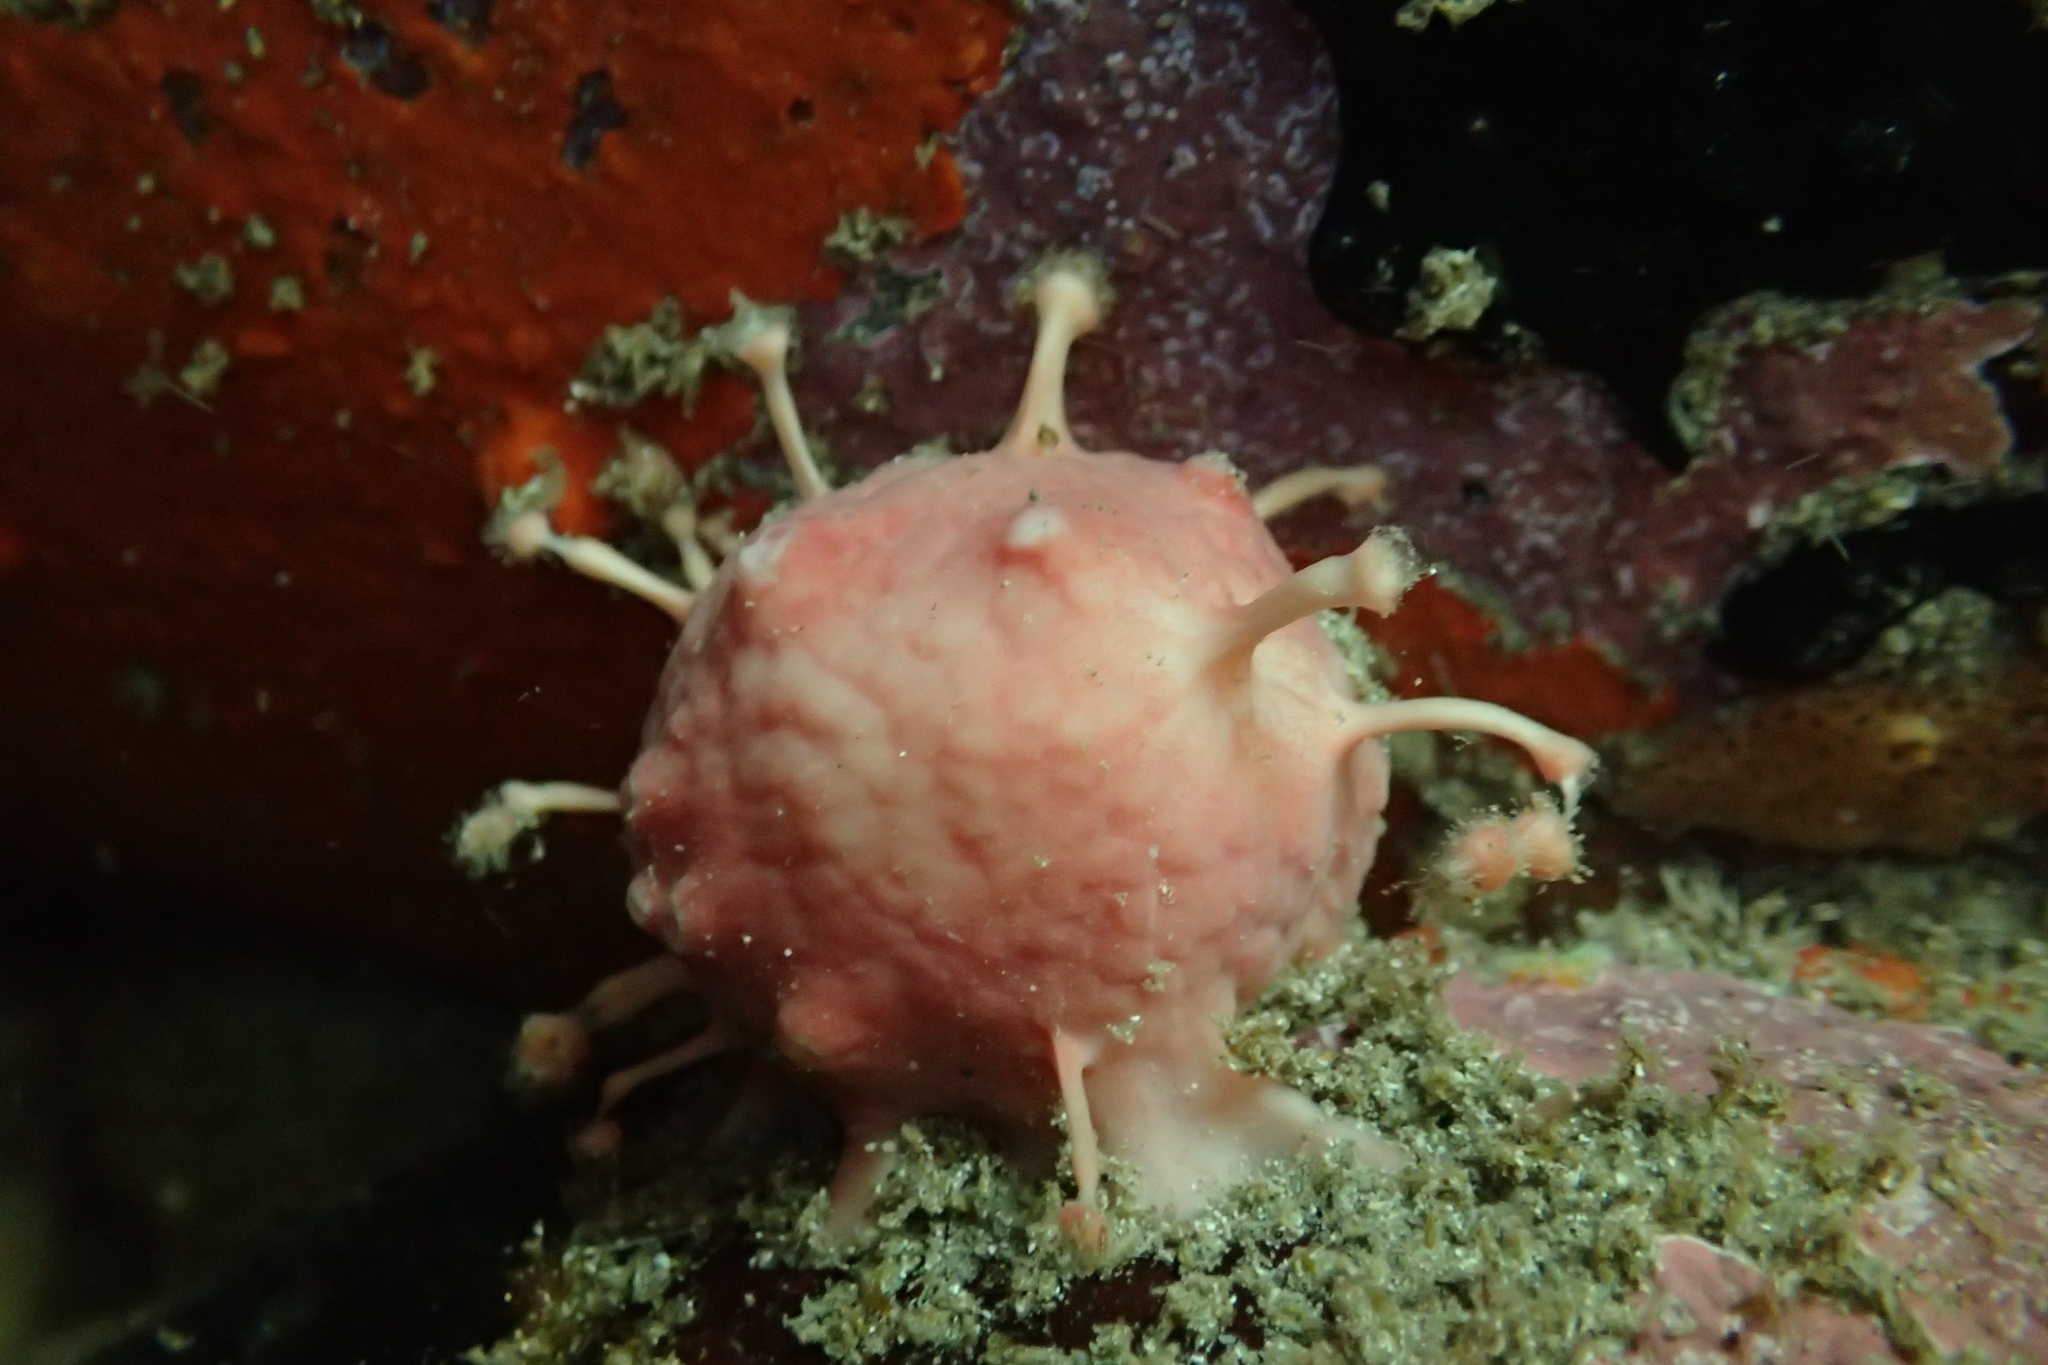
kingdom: Animalia
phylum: Porifera
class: Demospongiae
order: Tethyida
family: Tethyidae
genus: Tethya
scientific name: Tethya bergquistae
